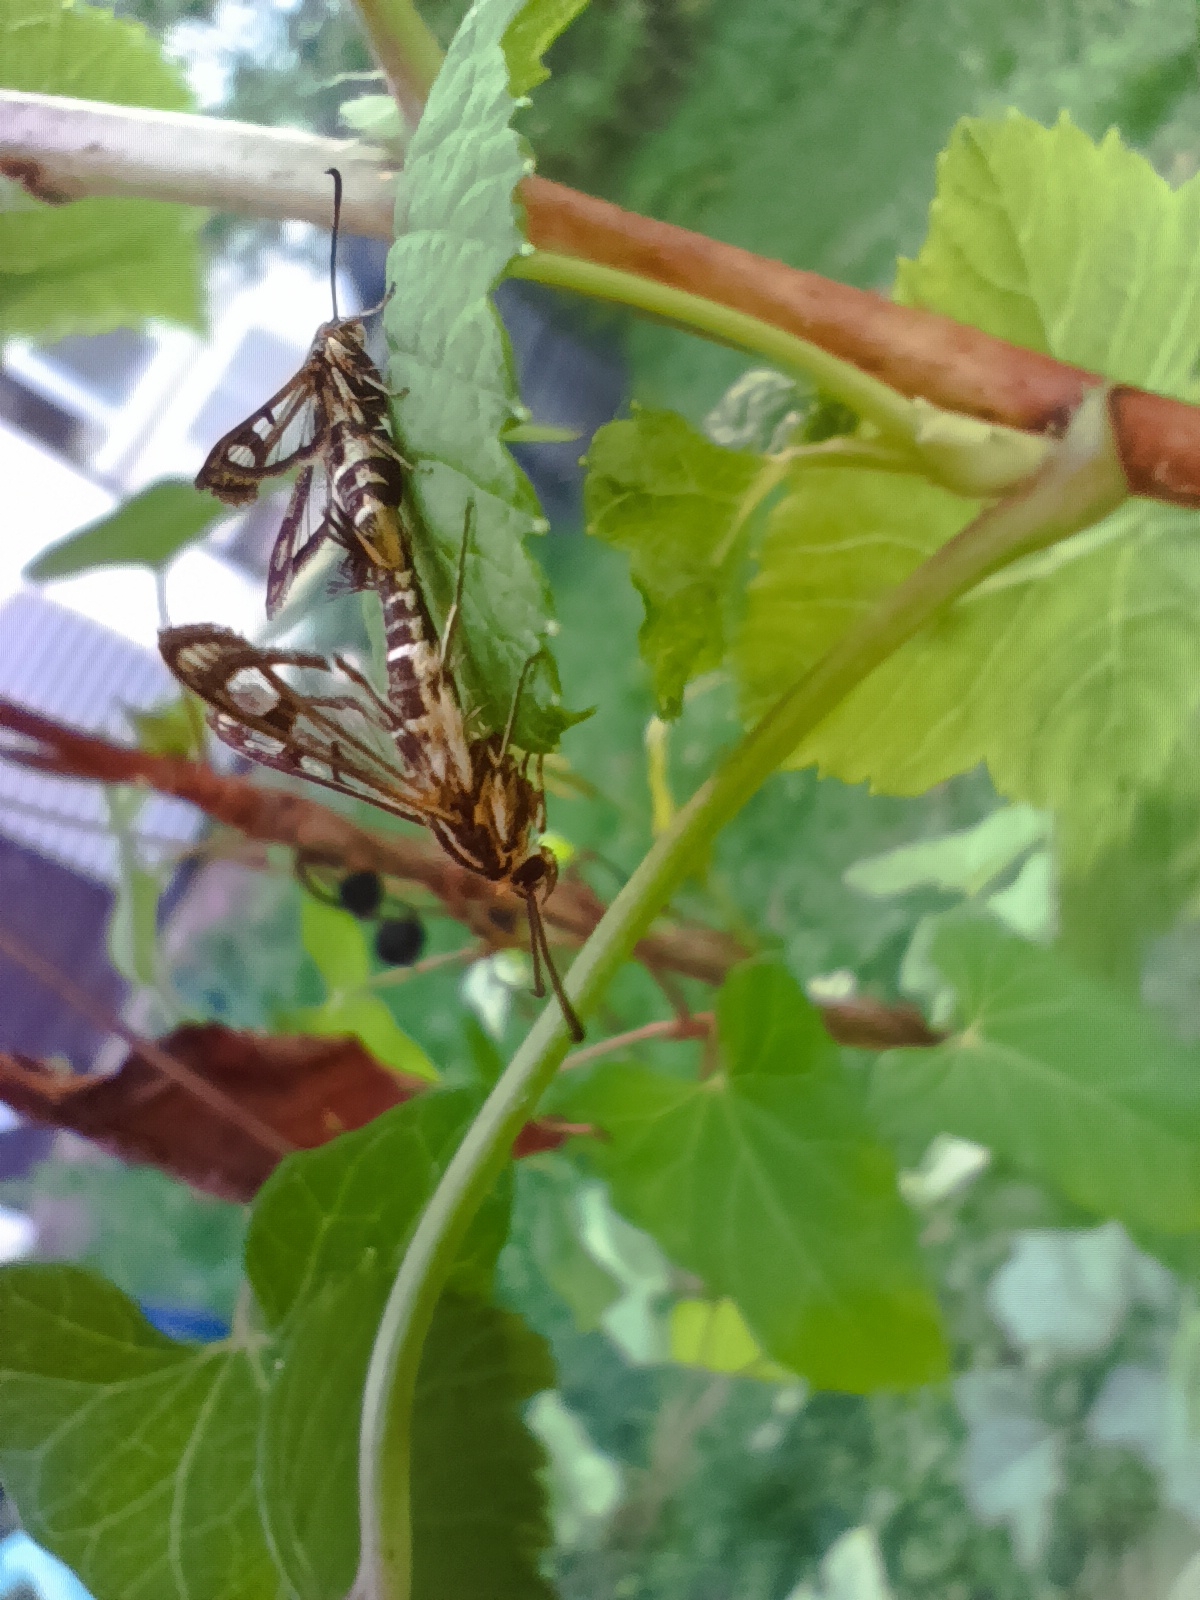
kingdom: Animalia
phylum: Arthropoda
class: Insecta
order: Lepidoptera
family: Sesiidae
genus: Pyropteron
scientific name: Pyropteron triannuliformis
